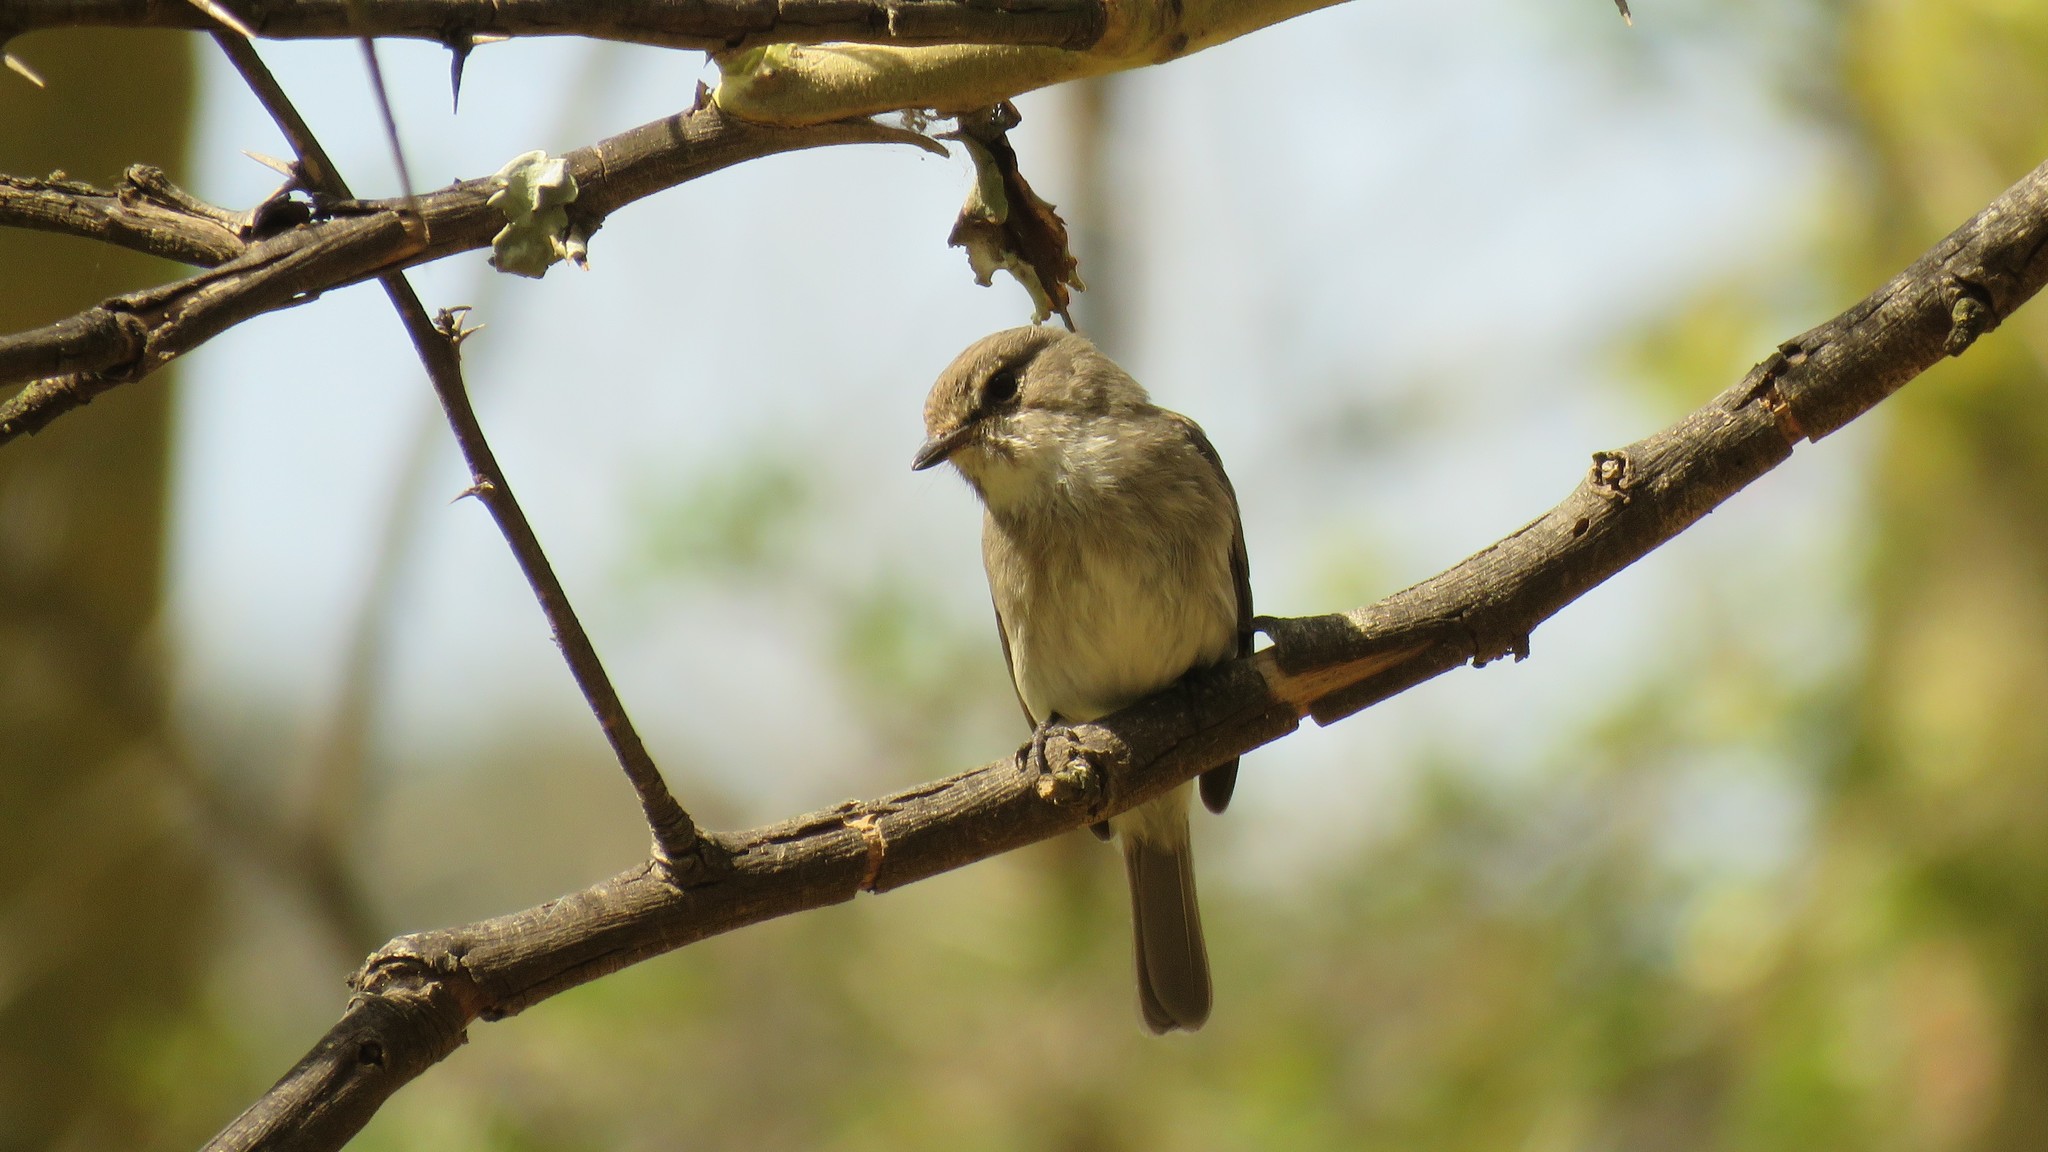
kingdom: Animalia
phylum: Chordata
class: Aves
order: Passeriformes
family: Muscicapidae
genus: Muscicapa
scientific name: Muscicapa adusta
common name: African dusky flycatcher
